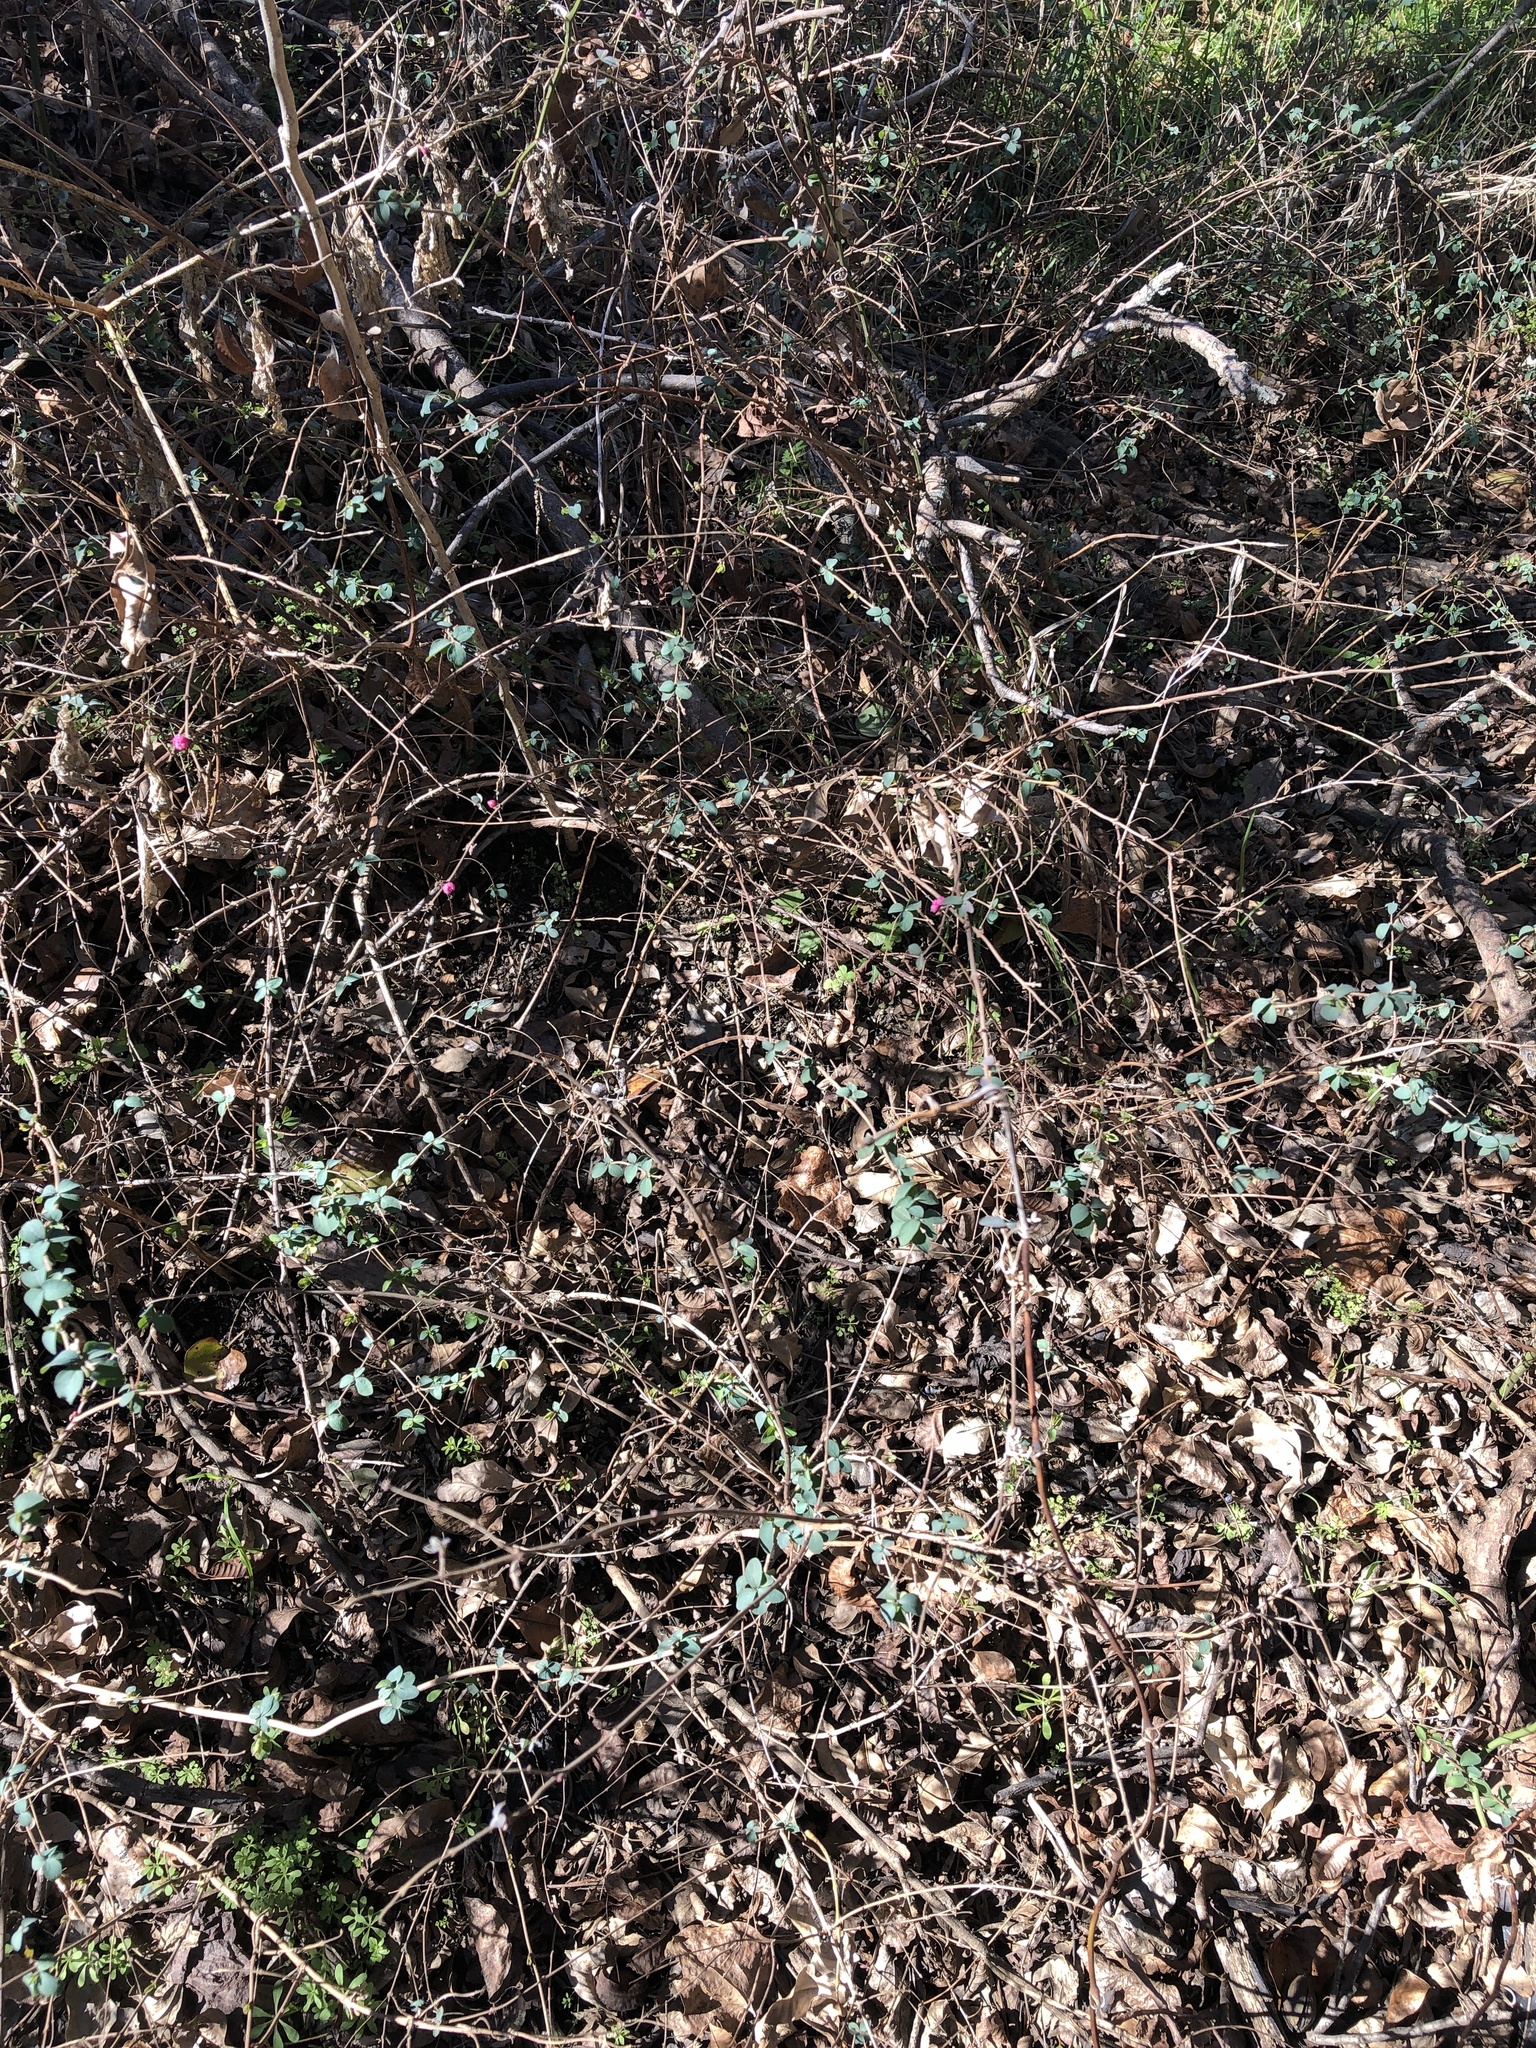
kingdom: Plantae
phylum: Tracheophyta
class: Magnoliopsida
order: Dipsacales
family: Caprifoliaceae
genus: Symphoricarpos
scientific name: Symphoricarpos orbiculatus
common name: Coralberry
